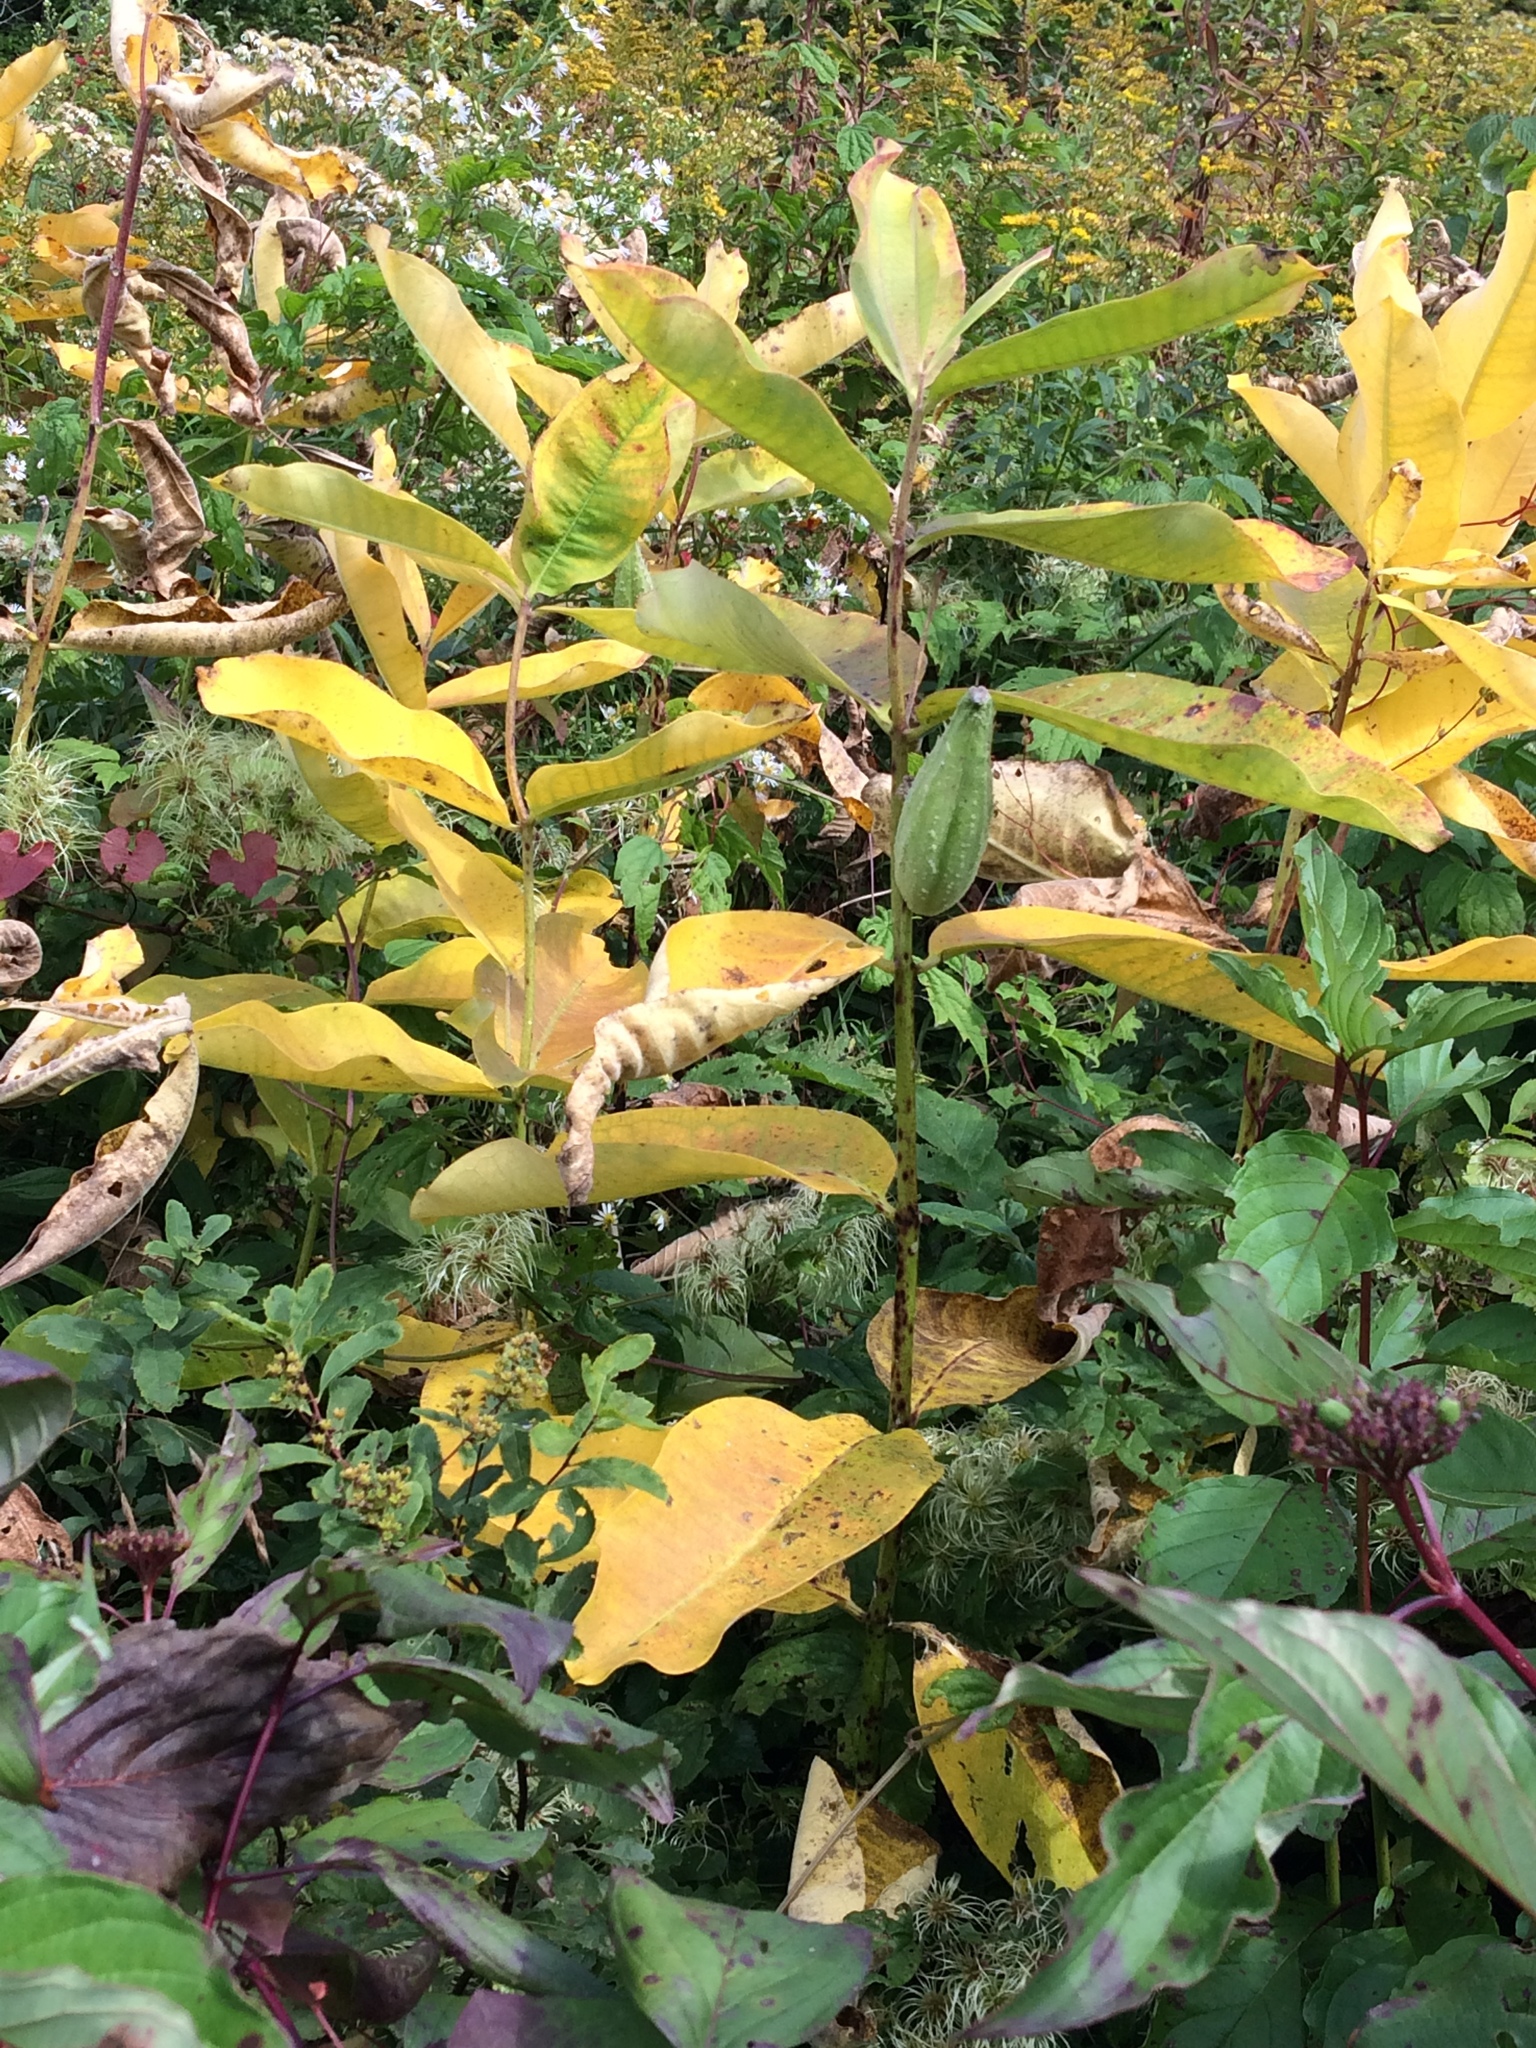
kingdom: Plantae
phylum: Tracheophyta
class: Magnoliopsida
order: Gentianales
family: Apocynaceae
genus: Asclepias
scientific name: Asclepias syriaca
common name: Common milkweed
